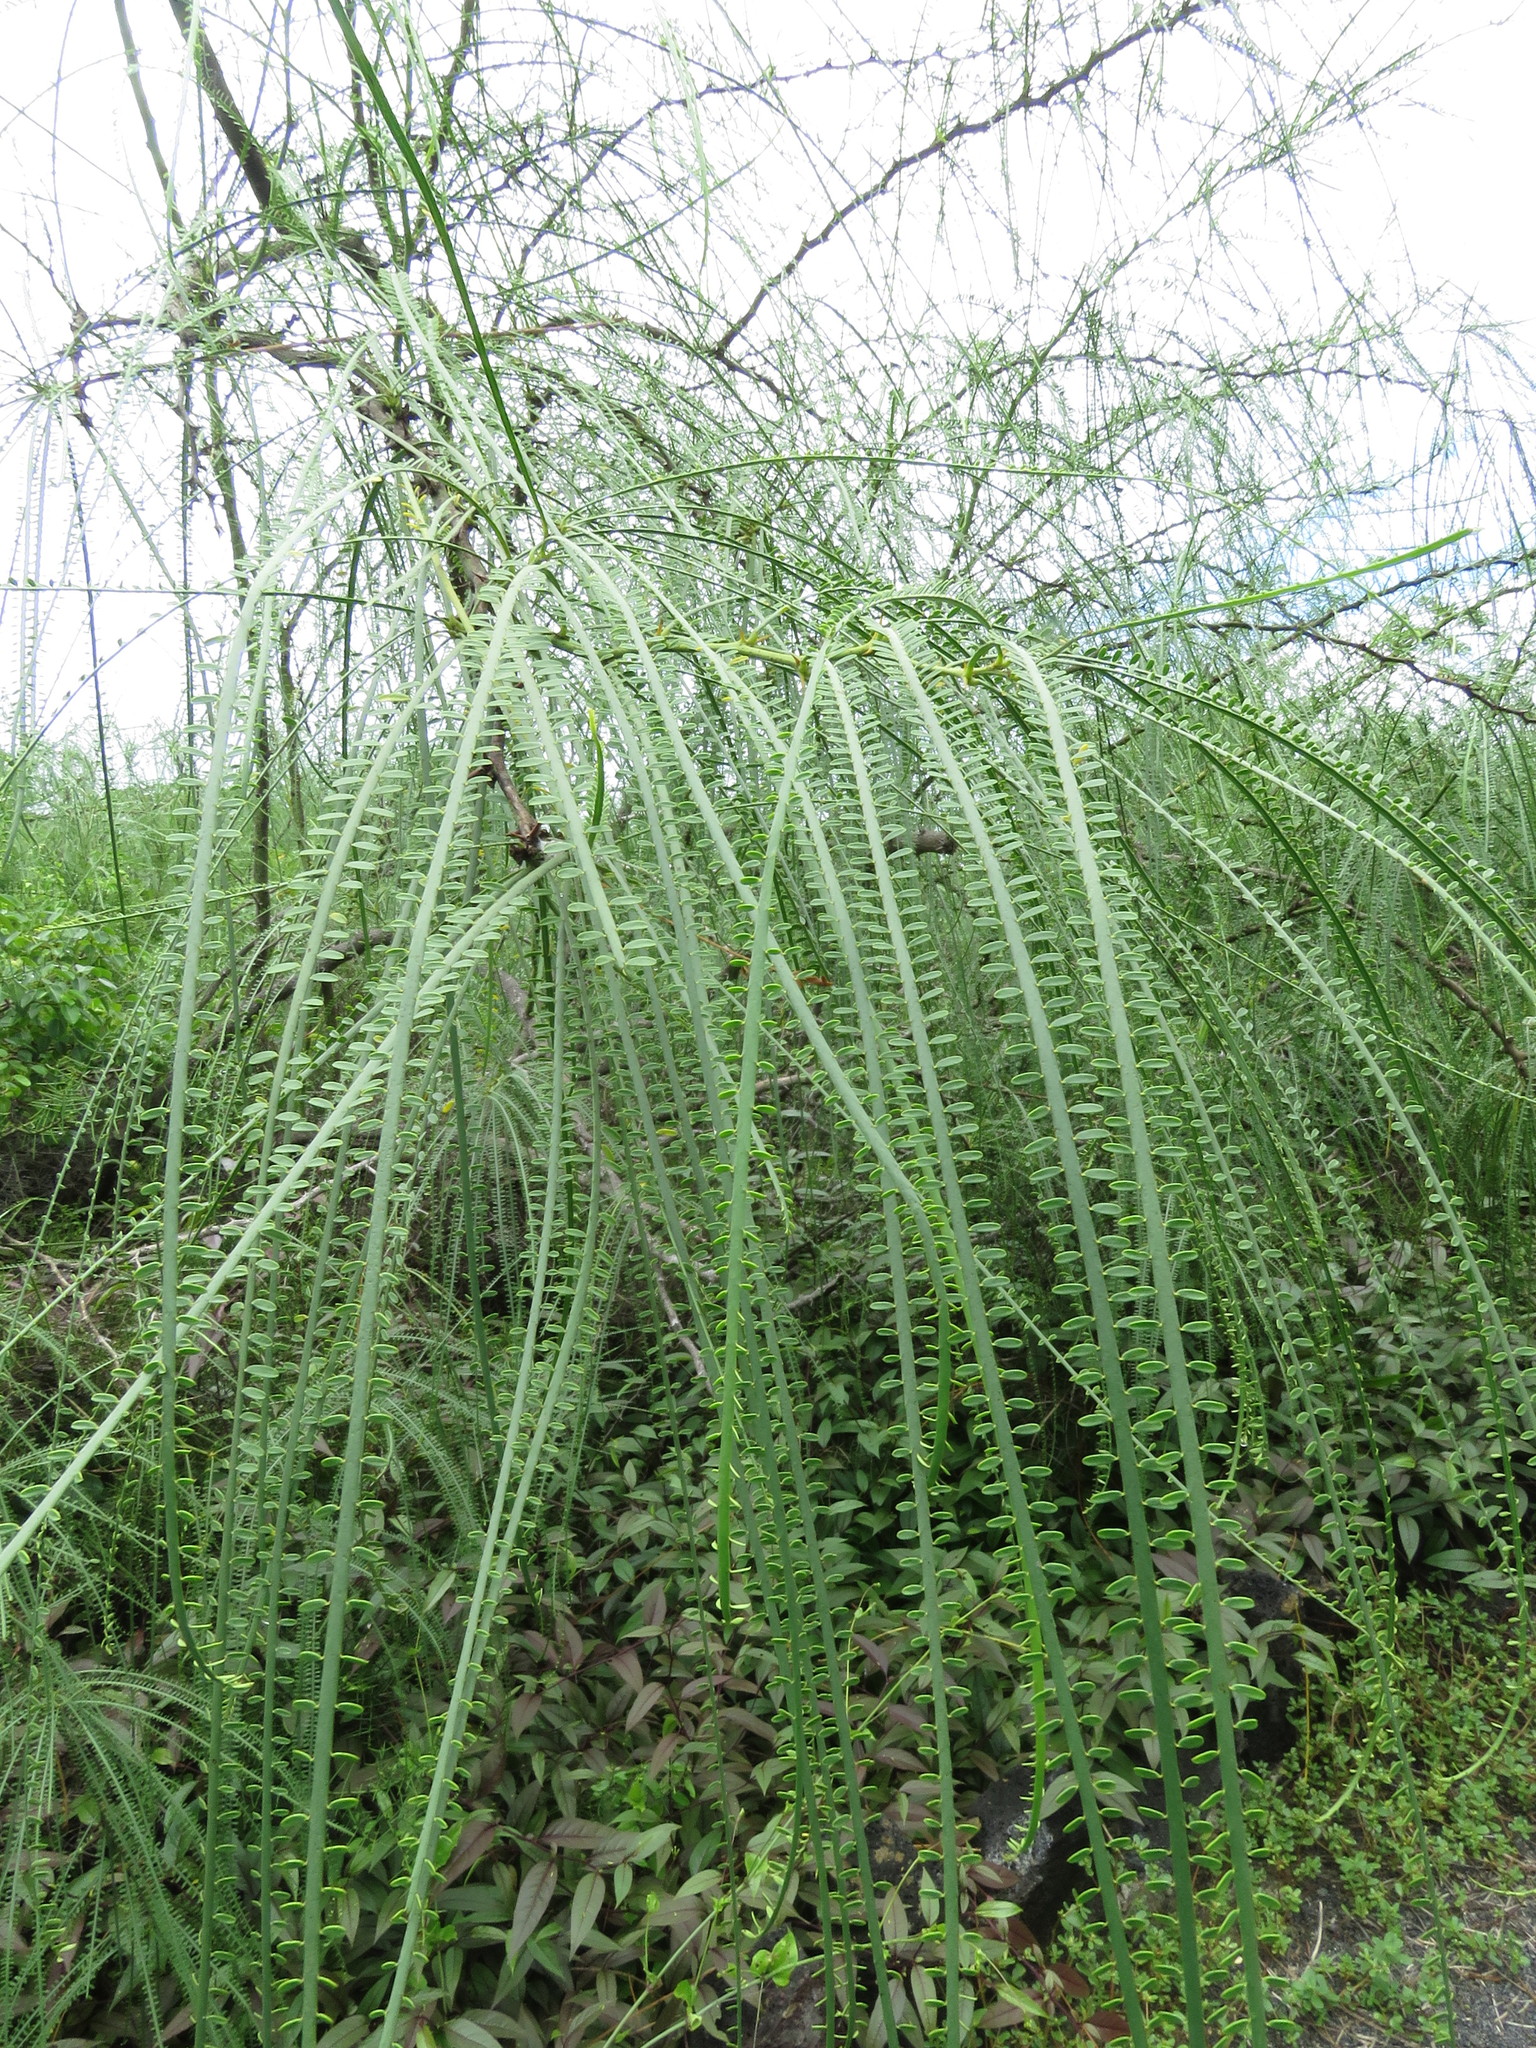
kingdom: Plantae
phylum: Tracheophyta
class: Magnoliopsida
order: Fabales
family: Fabaceae
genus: Parkinsonia
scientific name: Parkinsonia aculeata
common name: Jerusalem thorn
